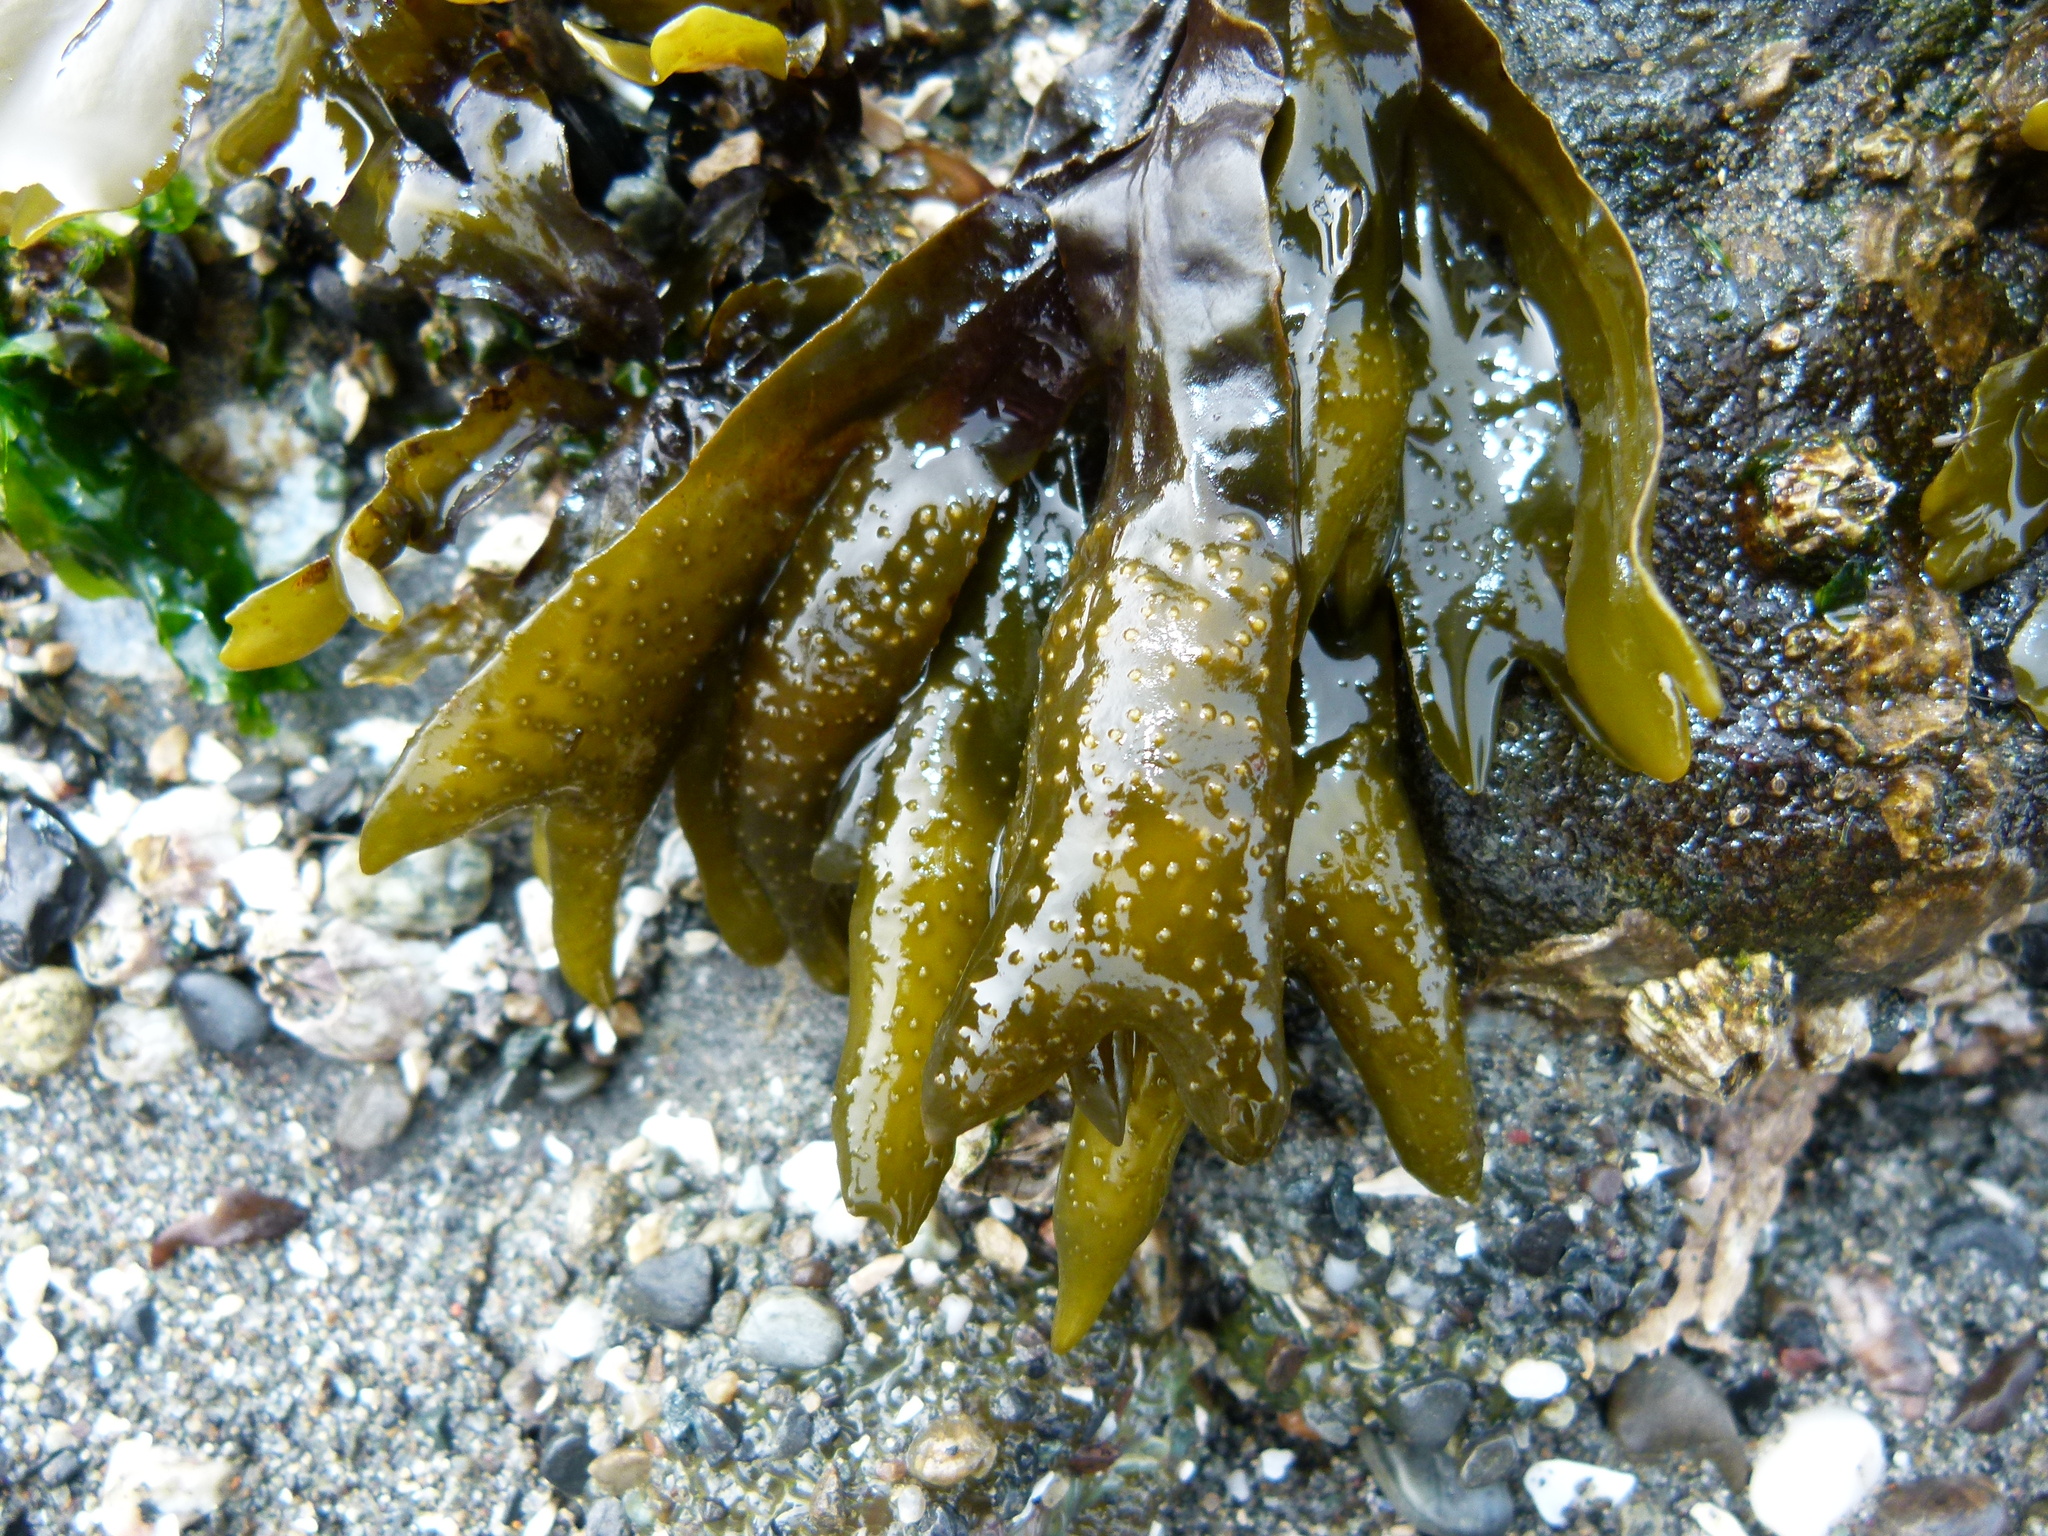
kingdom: Chromista
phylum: Ochrophyta
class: Phaeophyceae
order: Fucales
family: Fucaceae
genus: Fucus
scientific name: Fucus distichus
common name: Rockweed
